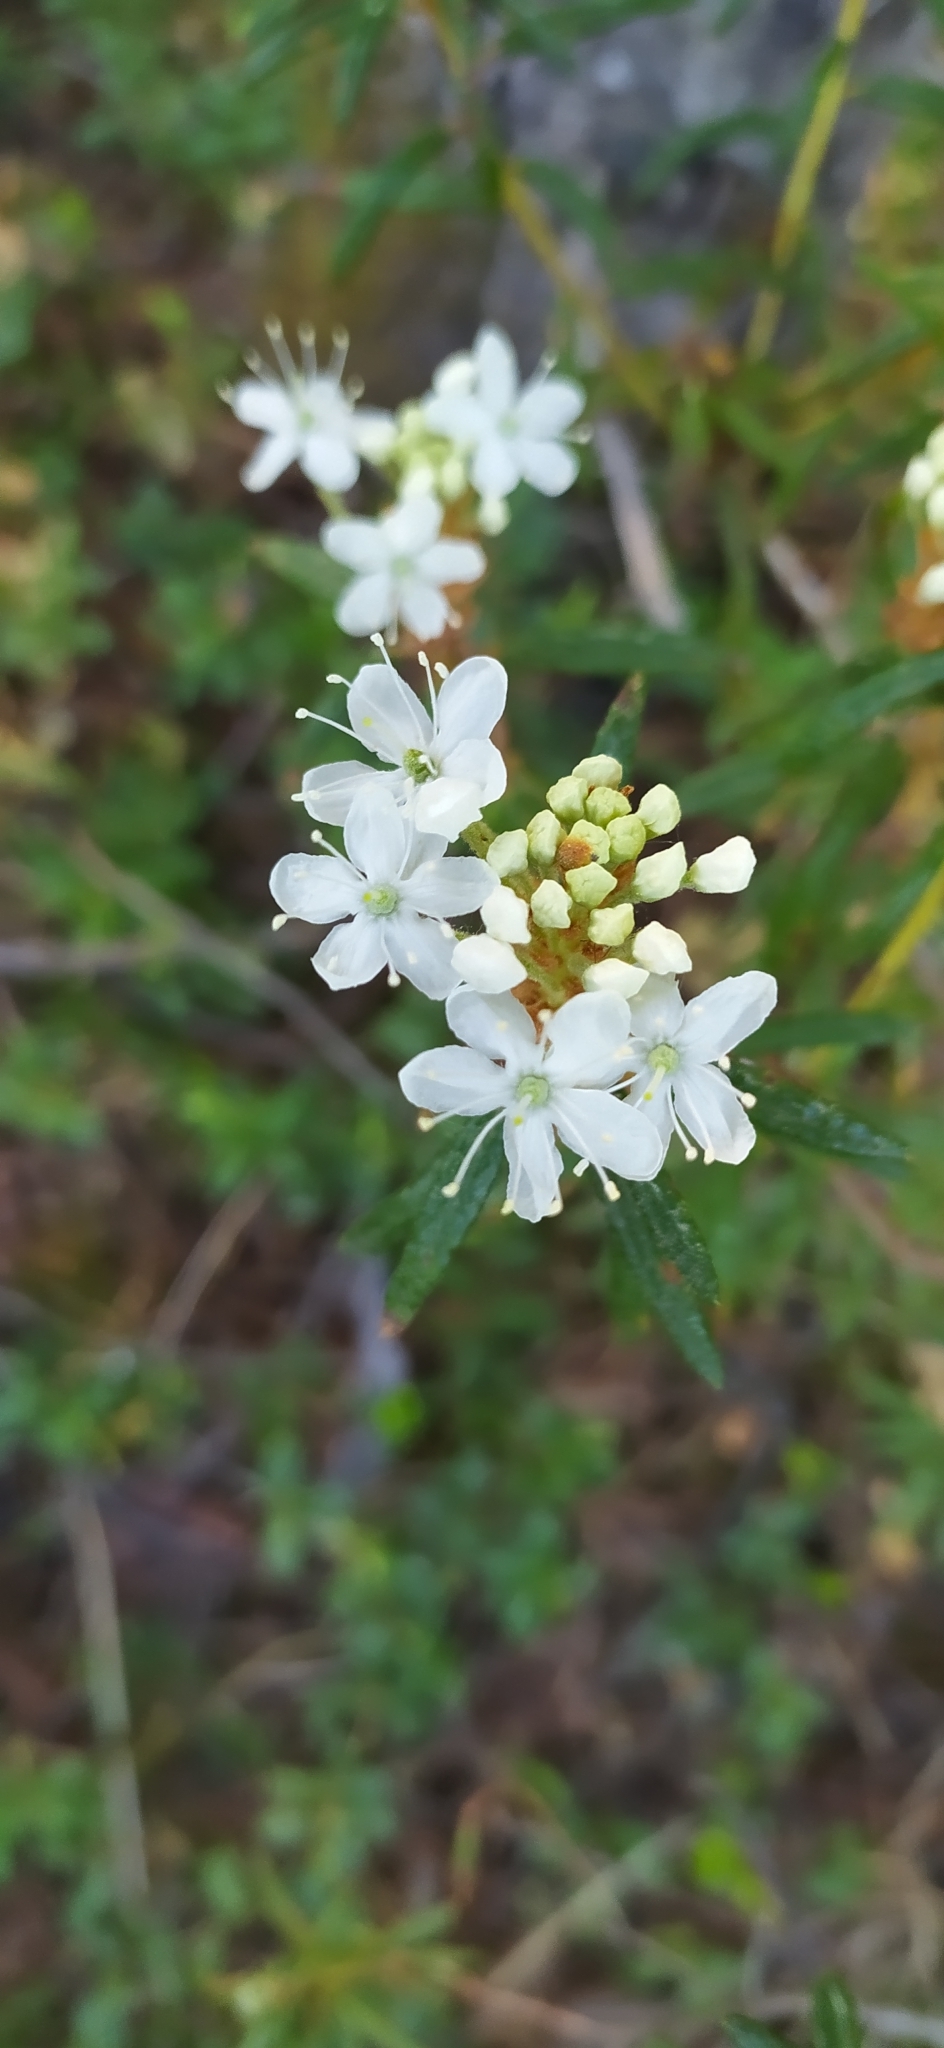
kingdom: Plantae
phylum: Tracheophyta
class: Magnoliopsida
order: Ericales
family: Ericaceae
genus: Rhododendron
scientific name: Rhododendron tomentosum
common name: Marsh labrador tea
